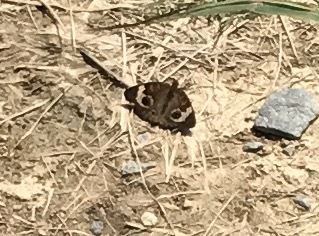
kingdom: Animalia
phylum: Arthropoda
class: Insecta
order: Lepidoptera
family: Nymphalidae
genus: Junonia
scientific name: Junonia coenia
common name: Common buckeye
